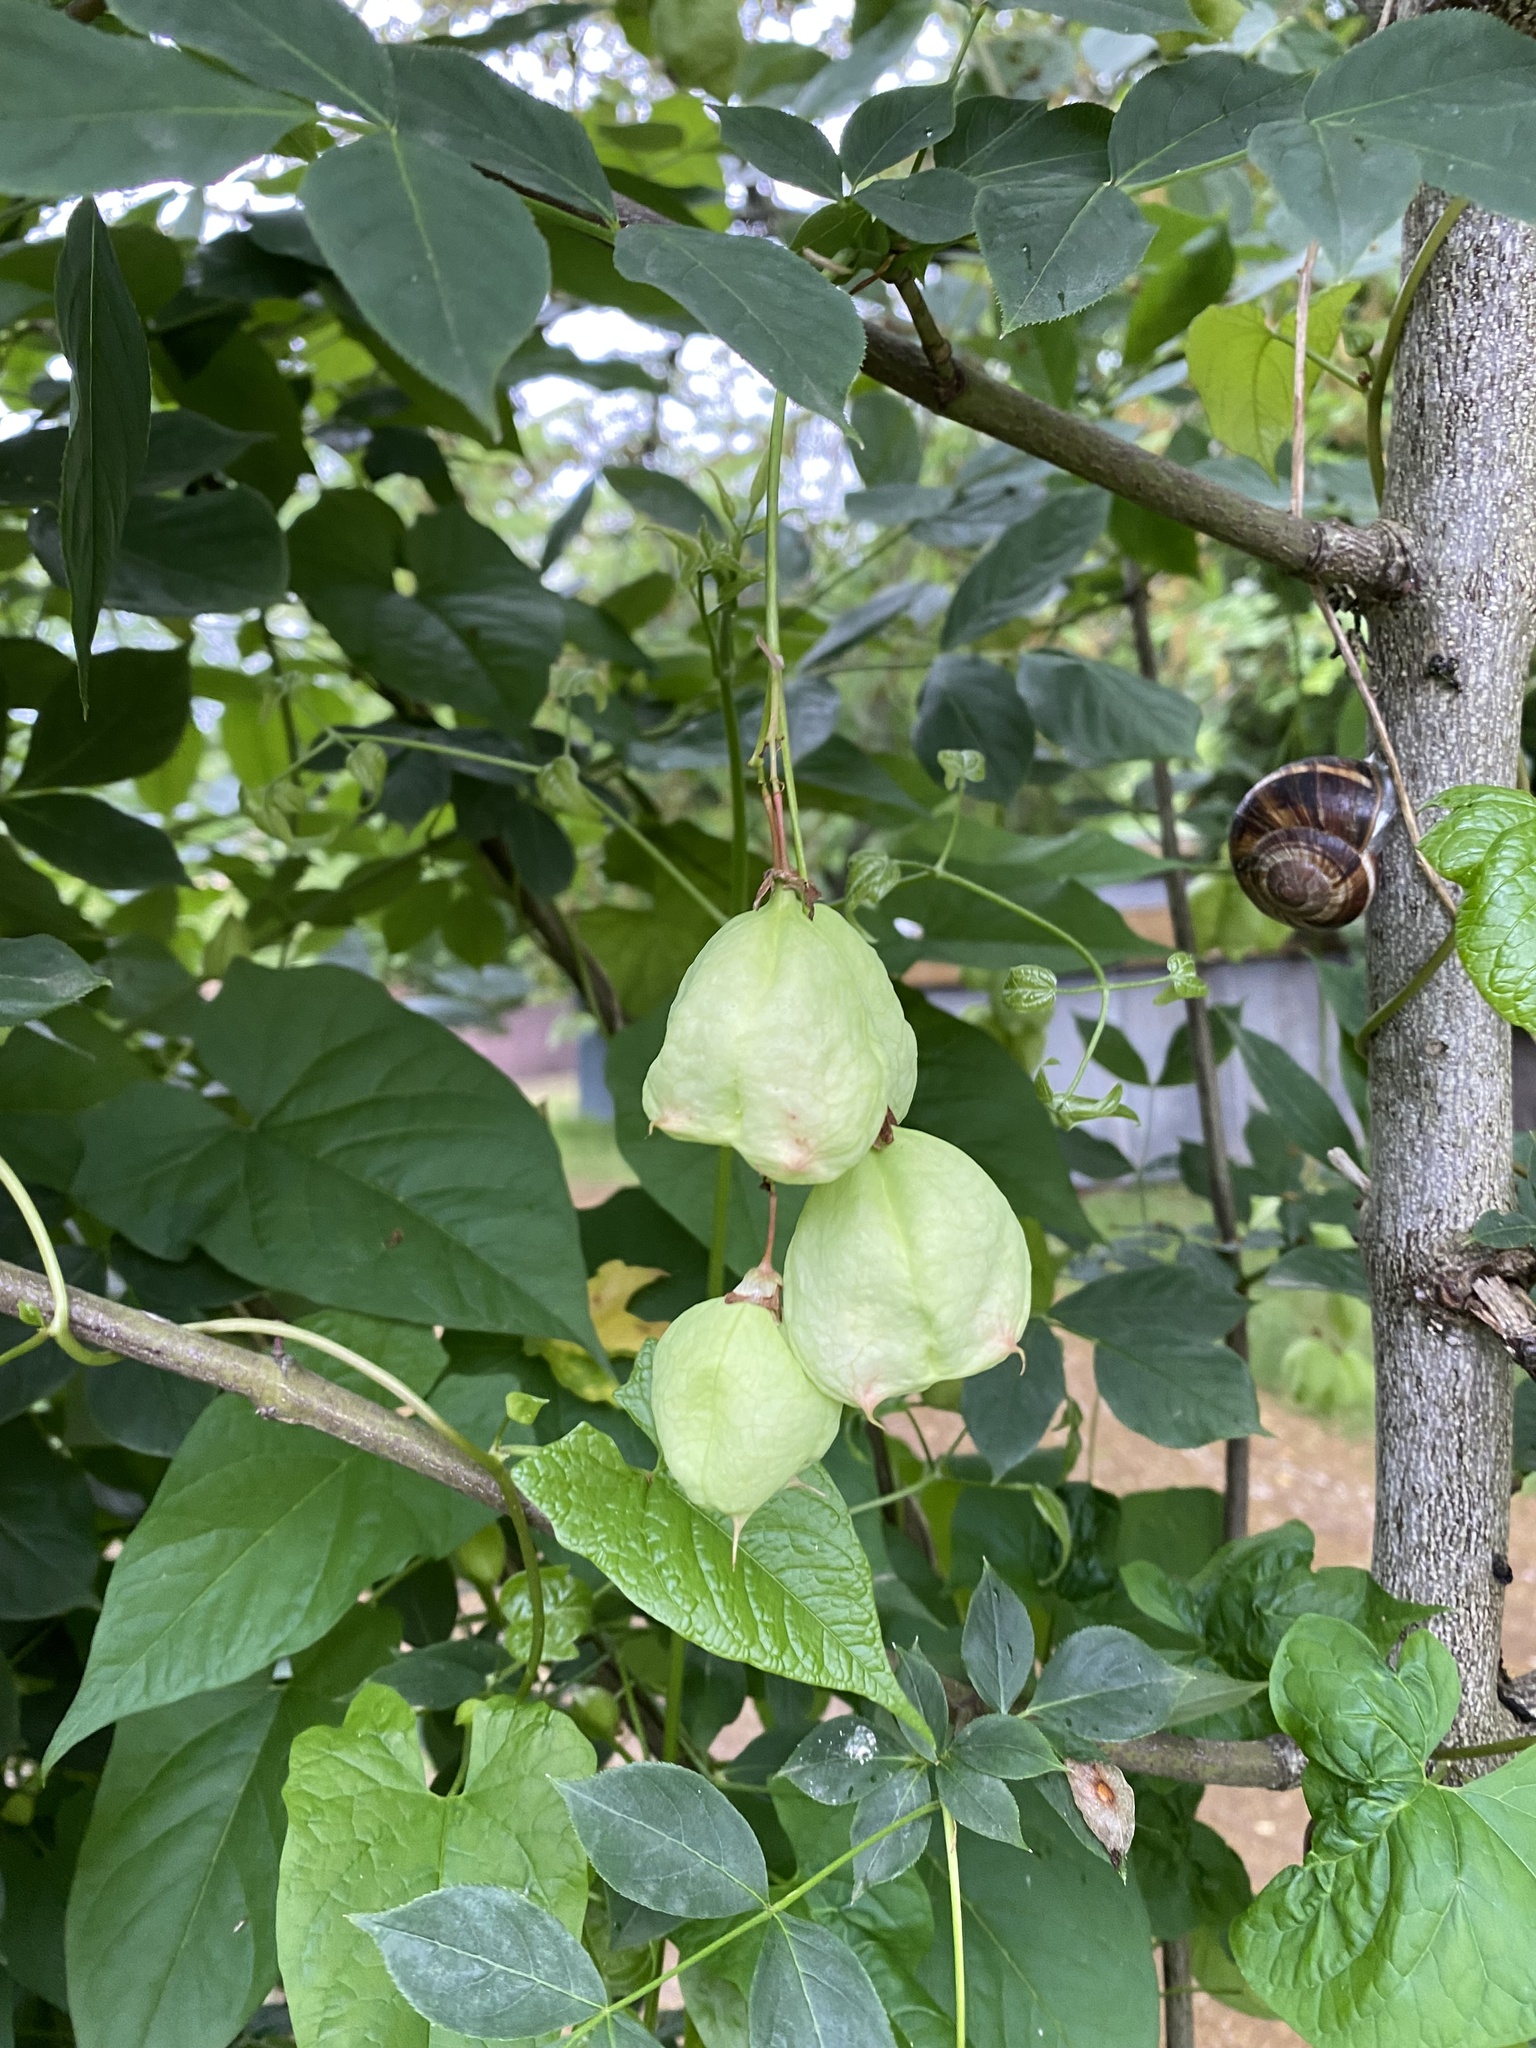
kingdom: Plantae
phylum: Tracheophyta
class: Magnoliopsida
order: Crossosomatales
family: Staphyleaceae
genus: Staphylea
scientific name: Staphylea pinnata
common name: Bladdernut
